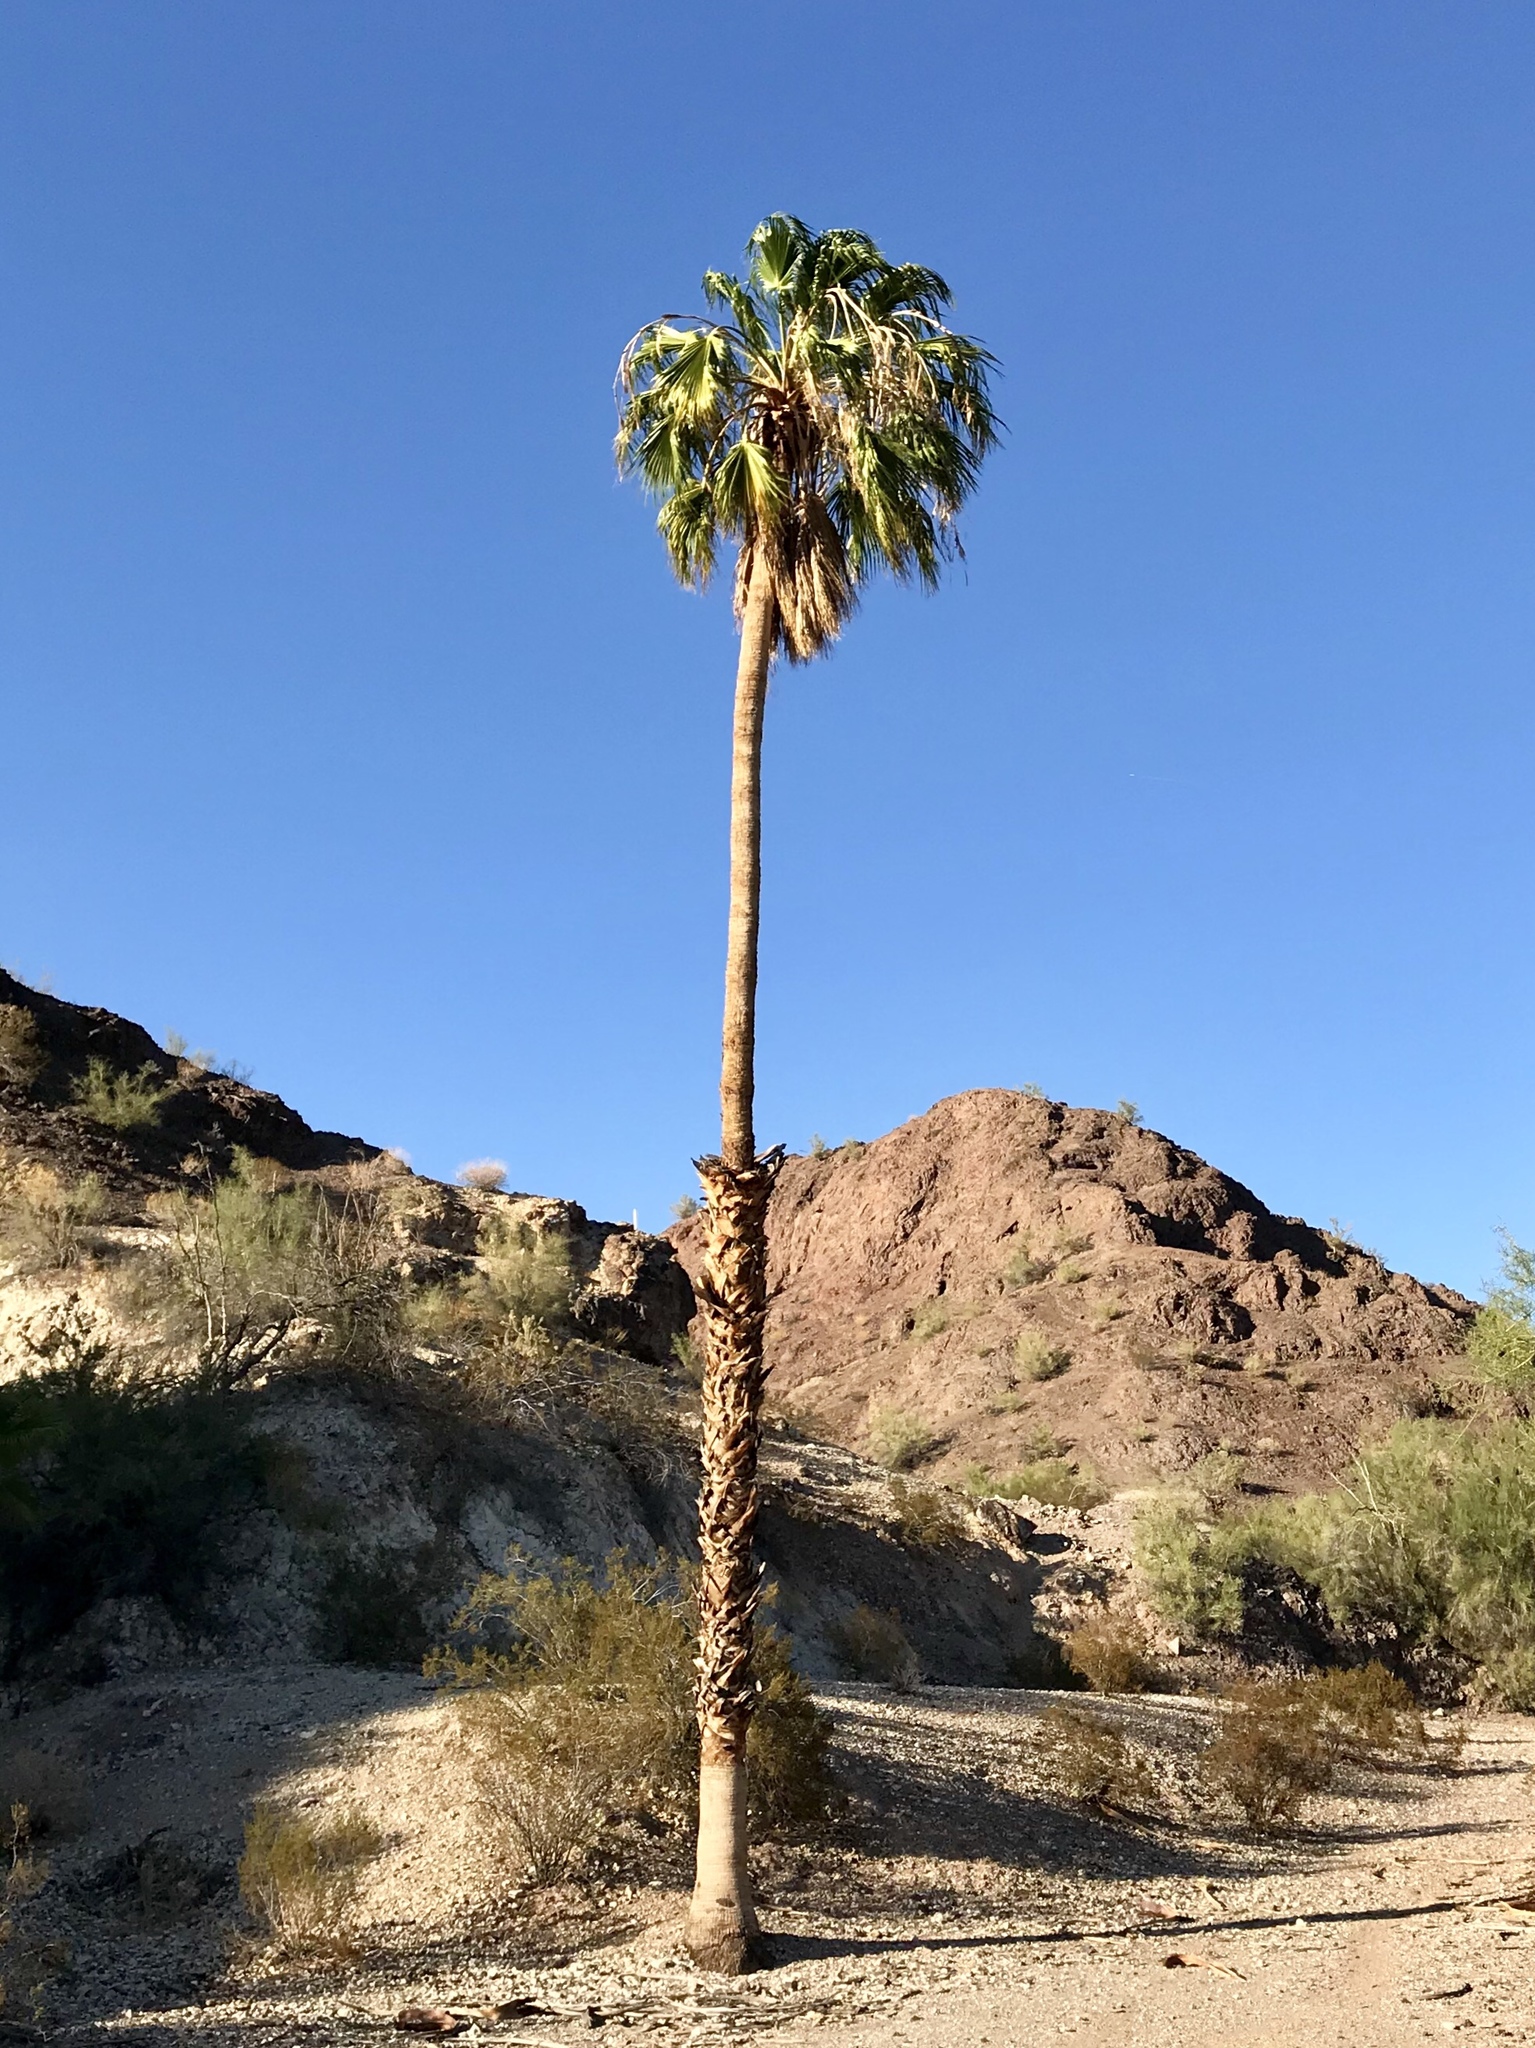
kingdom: Plantae
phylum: Tracheophyta
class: Liliopsida
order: Arecales
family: Arecaceae
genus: Washingtonia
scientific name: Washingtonia robusta
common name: Mexican fan palm
